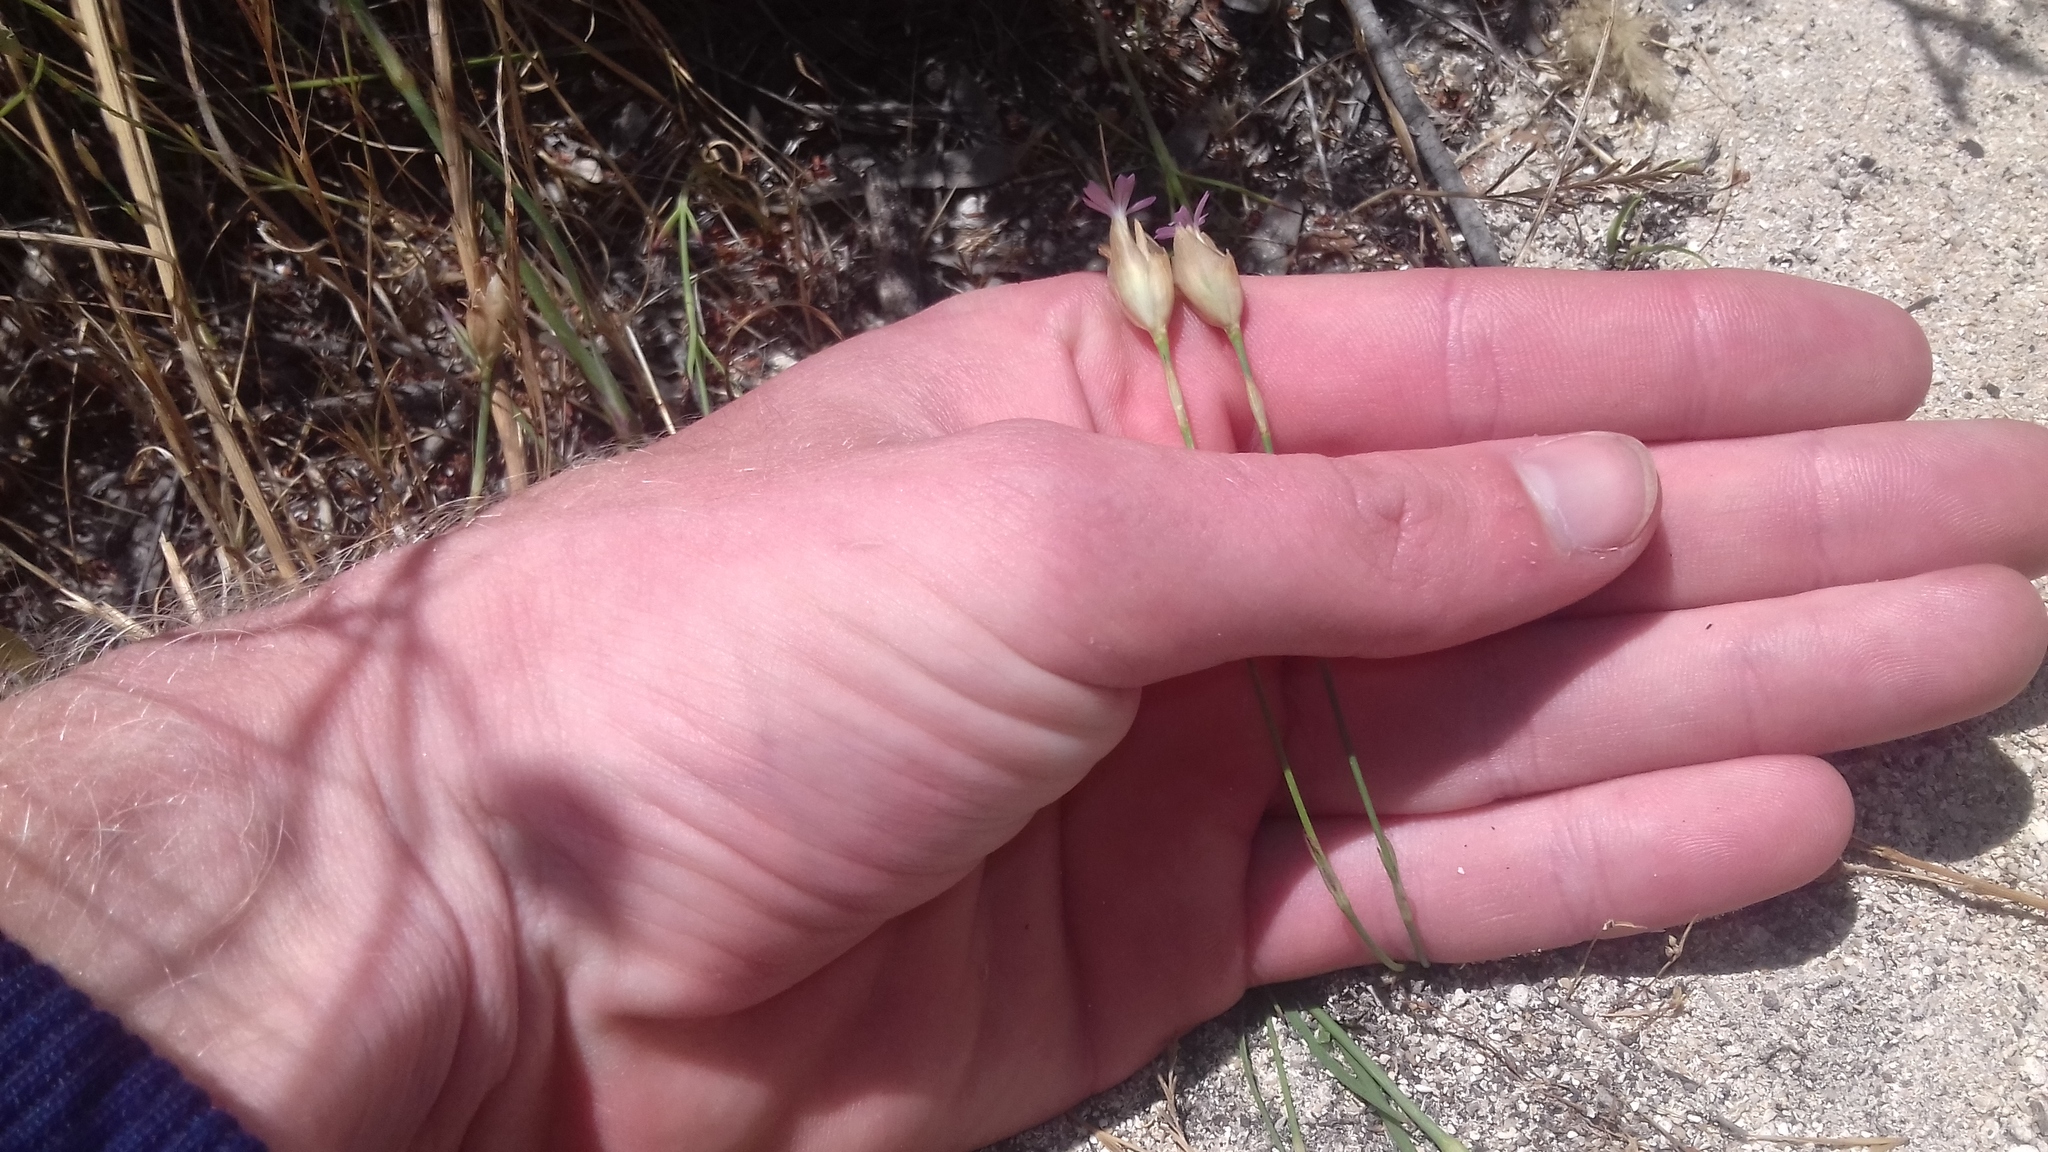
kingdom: Plantae
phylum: Tracheophyta
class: Magnoliopsida
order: Caryophyllales
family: Caryophyllaceae
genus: Petrorhagia
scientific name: Petrorhagia prolifera
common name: Proliferous pink
